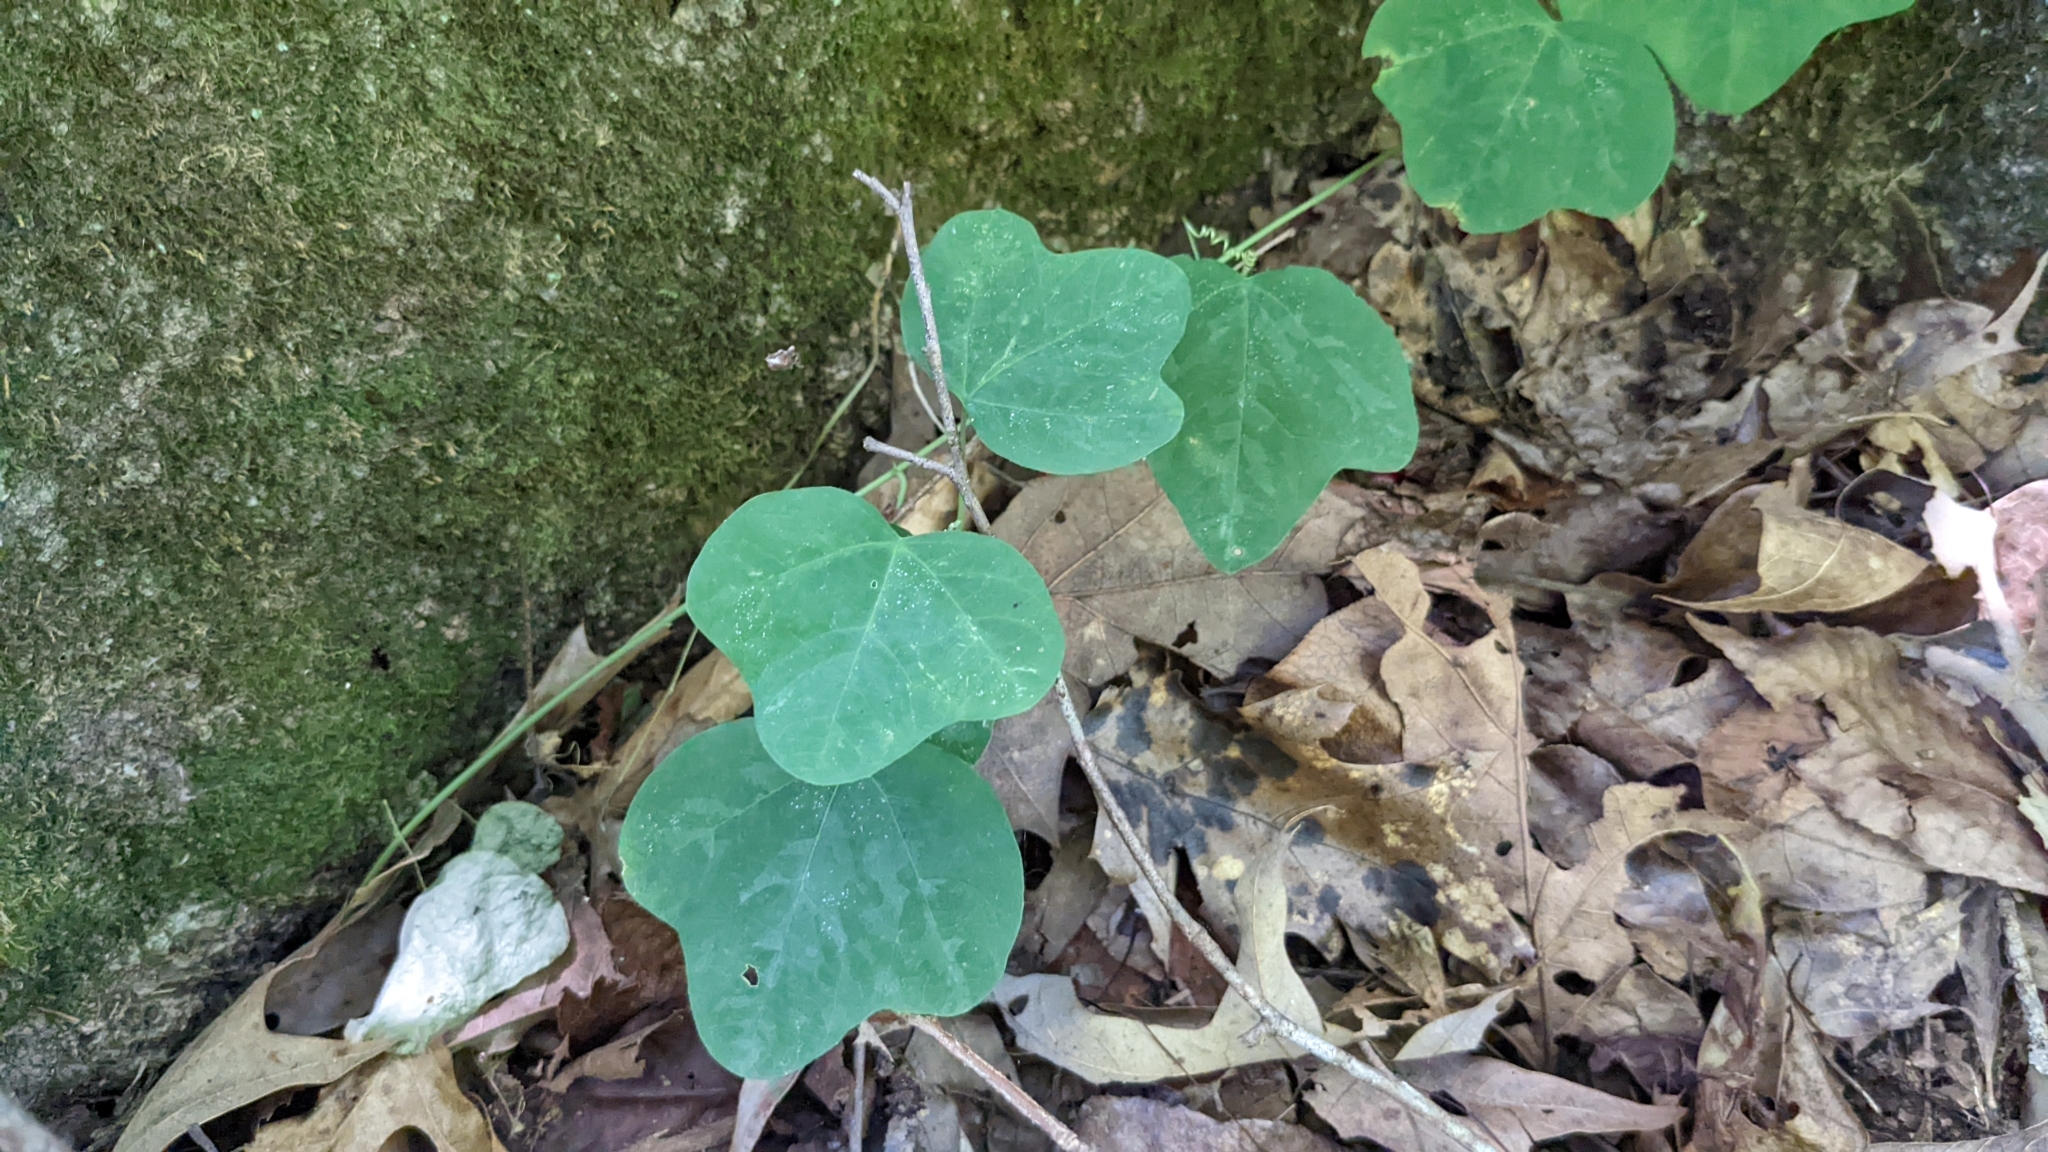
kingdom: Plantae
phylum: Tracheophyta
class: Magnoliopsida
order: Malpighiales
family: Passifloraceae
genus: Passiflora
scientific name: Passiflora lutea
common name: Yellow passionflower
